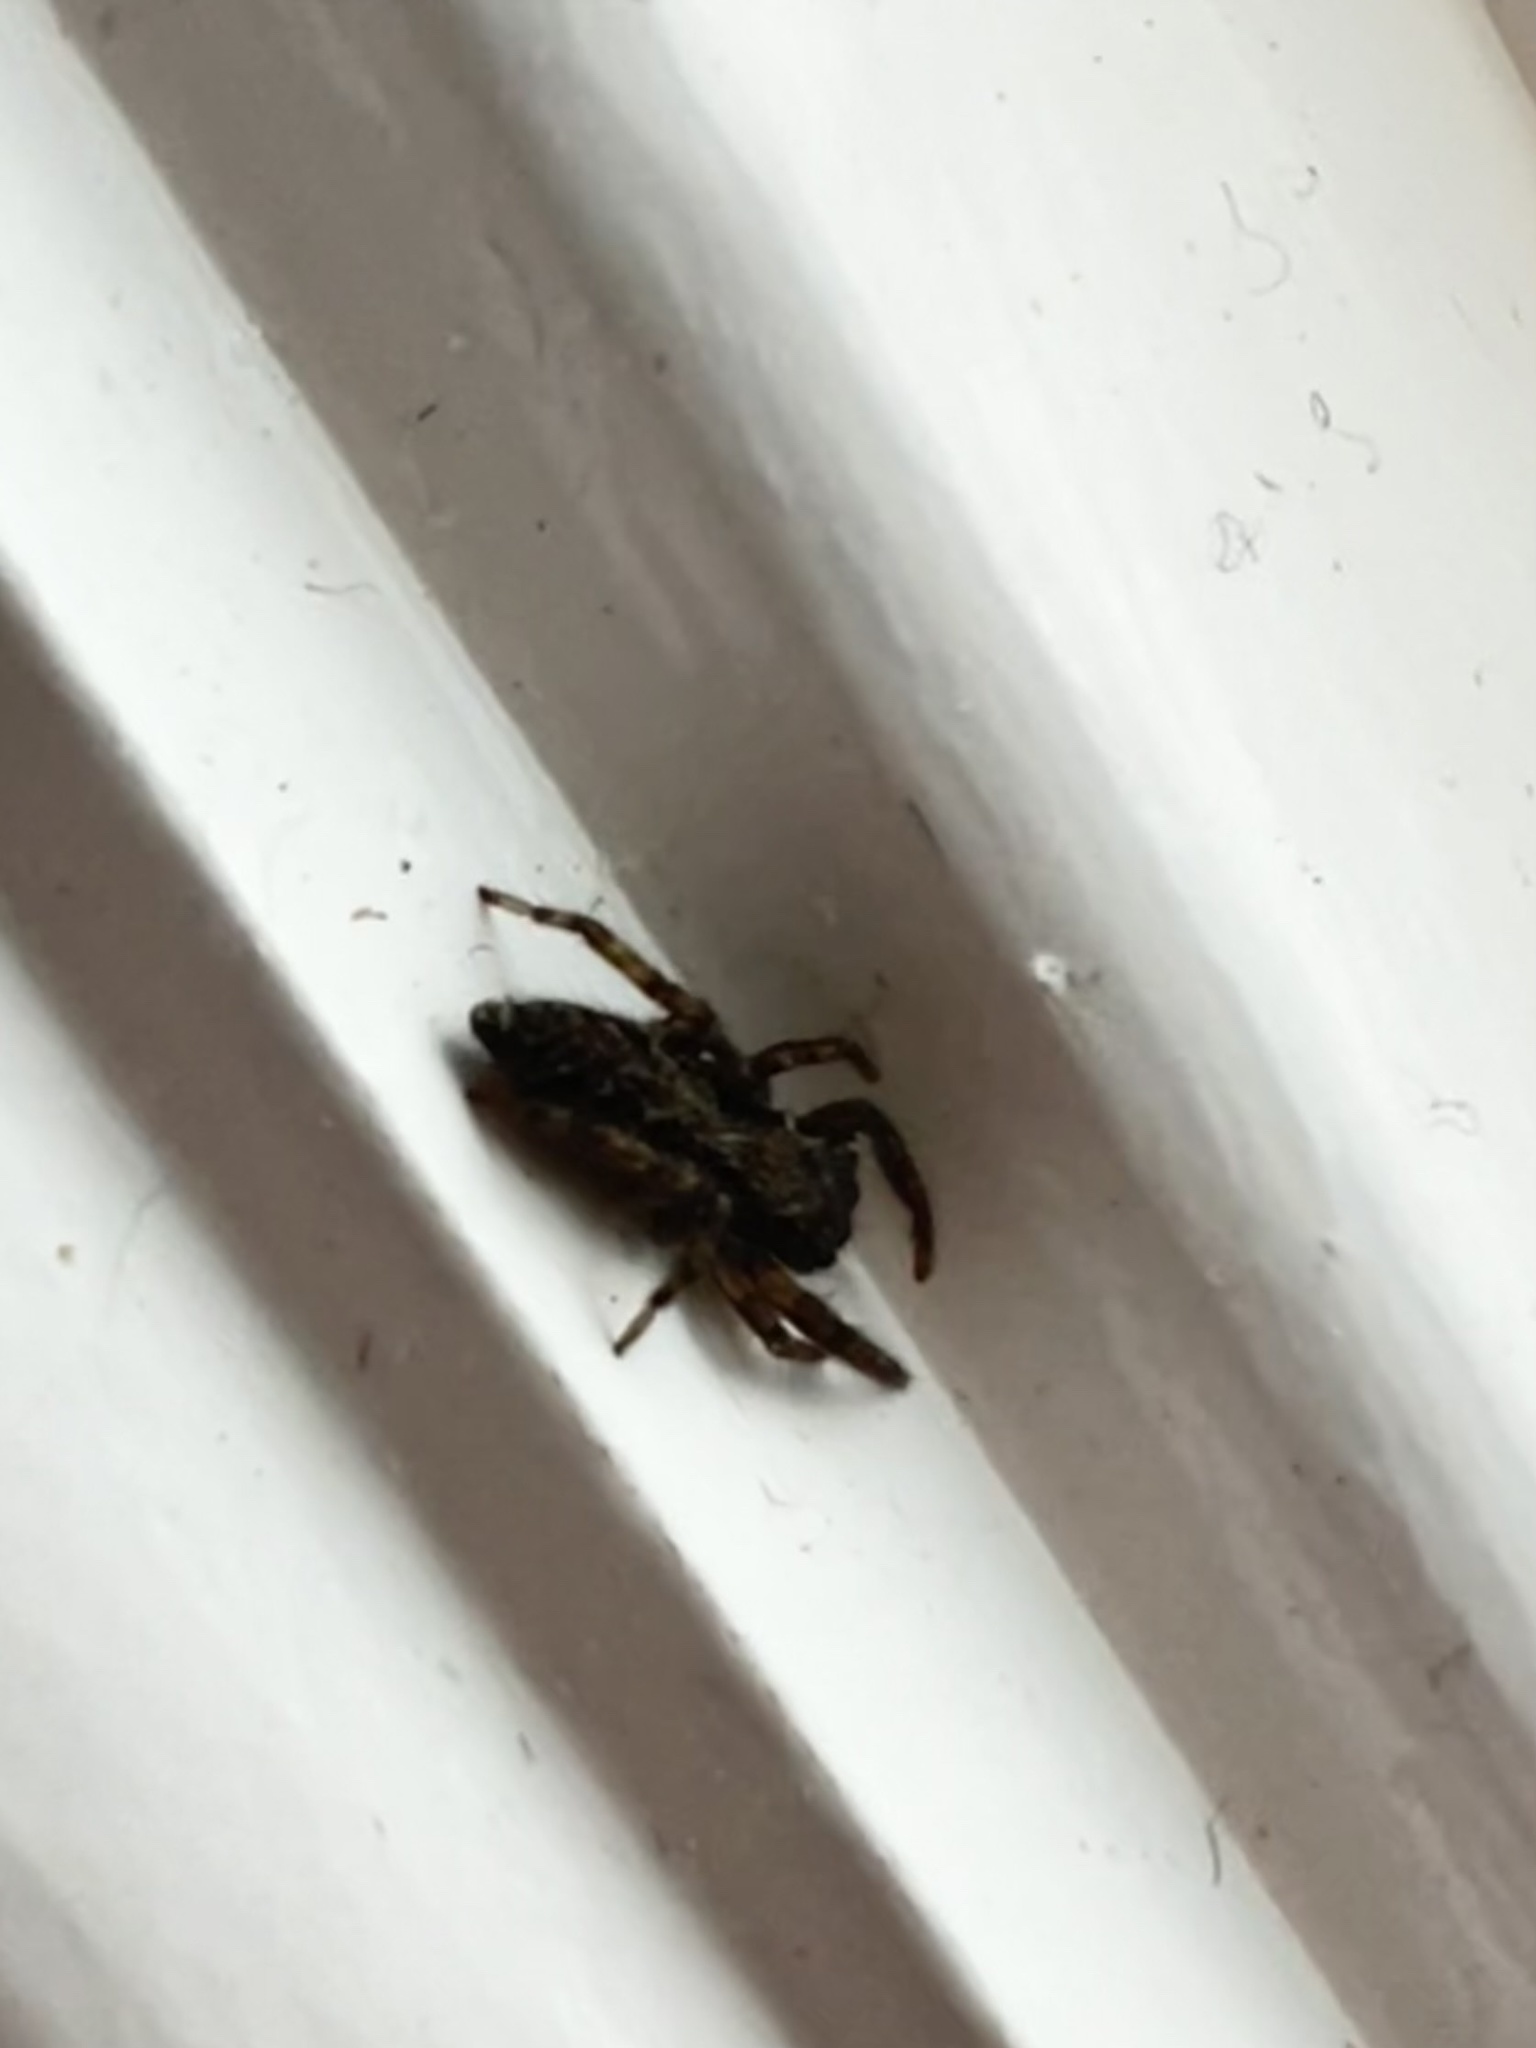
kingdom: Animalia
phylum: Arthropoda
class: Arachnida
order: Araneae
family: Salticidae
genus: Platycryptus
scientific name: Platycryptus californicus
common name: Jumping spiders
